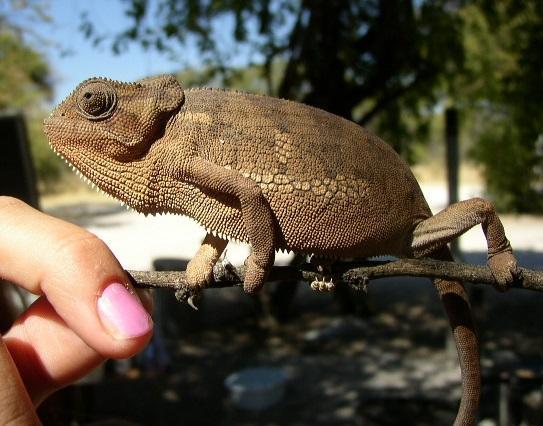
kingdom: Animalia
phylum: Chordata
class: Squamata
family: Chamaeleonidae
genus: Chamaeleo
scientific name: Chamaeleo dilepis
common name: Flapneck chameleon
